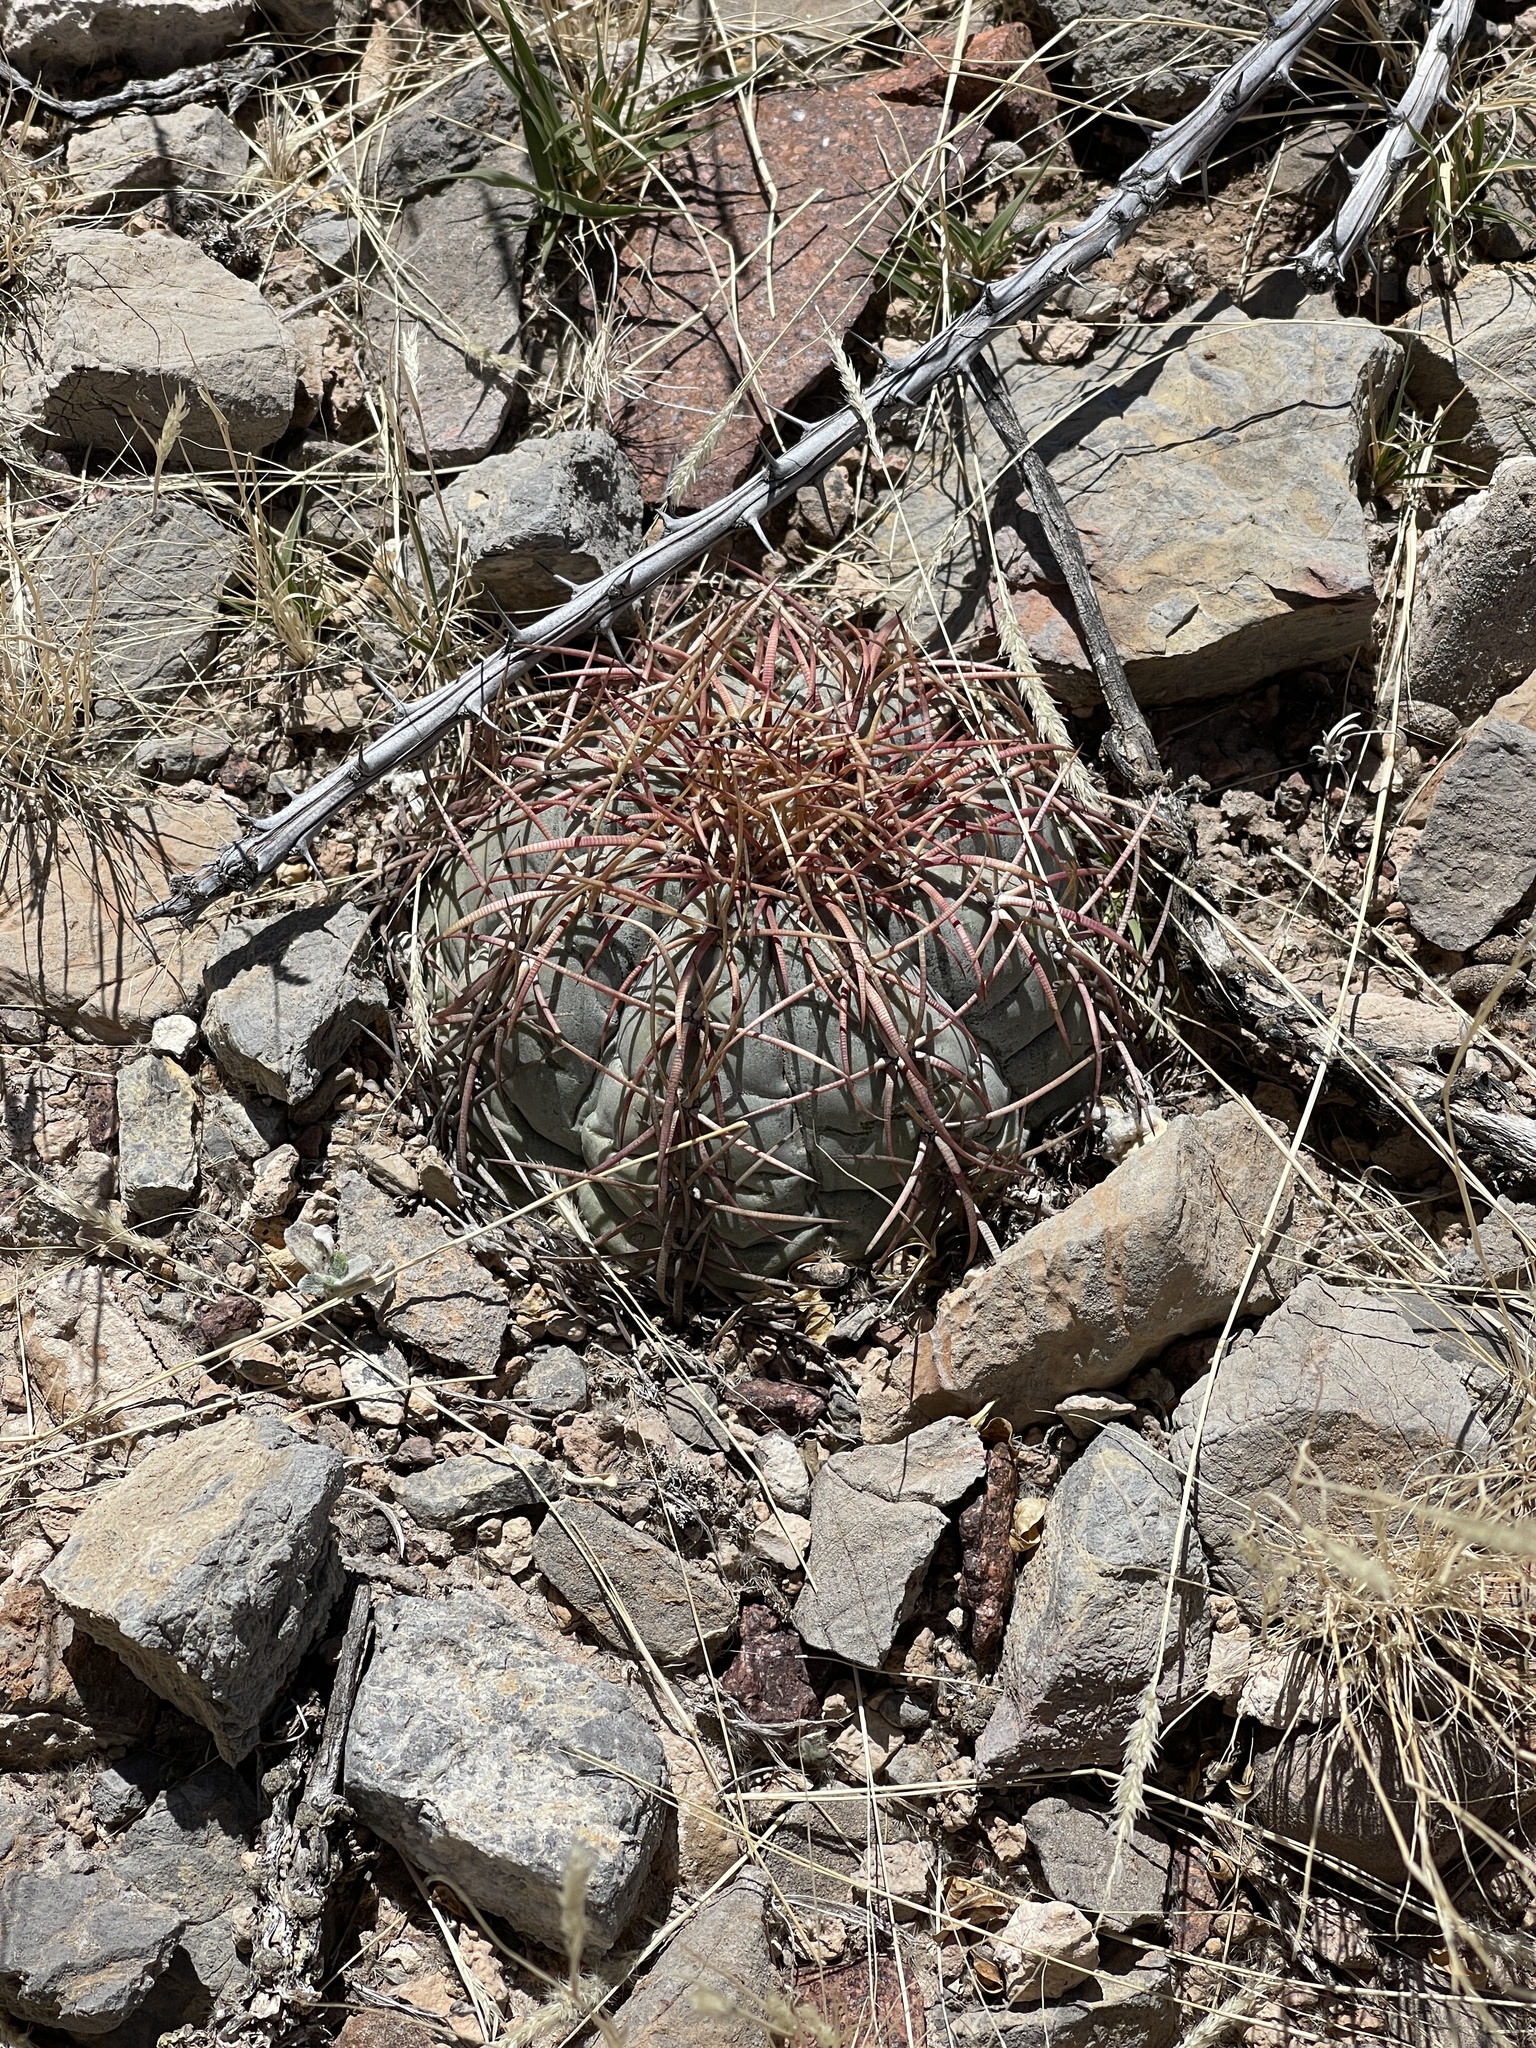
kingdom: Plantae
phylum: Tracheophyta
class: Magnoliopsida
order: Caryophyllales
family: Cactaceae
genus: Echinocactus
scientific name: Echinocactus horizonthalonius
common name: Devilshead
